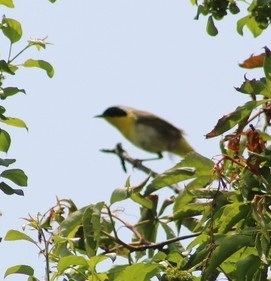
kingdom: Animalia
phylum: Chordata
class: Aves
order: Passeriformes
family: Parulidae
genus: Geothlypis
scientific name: Geothlypis trichas
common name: Common yellowthroat
